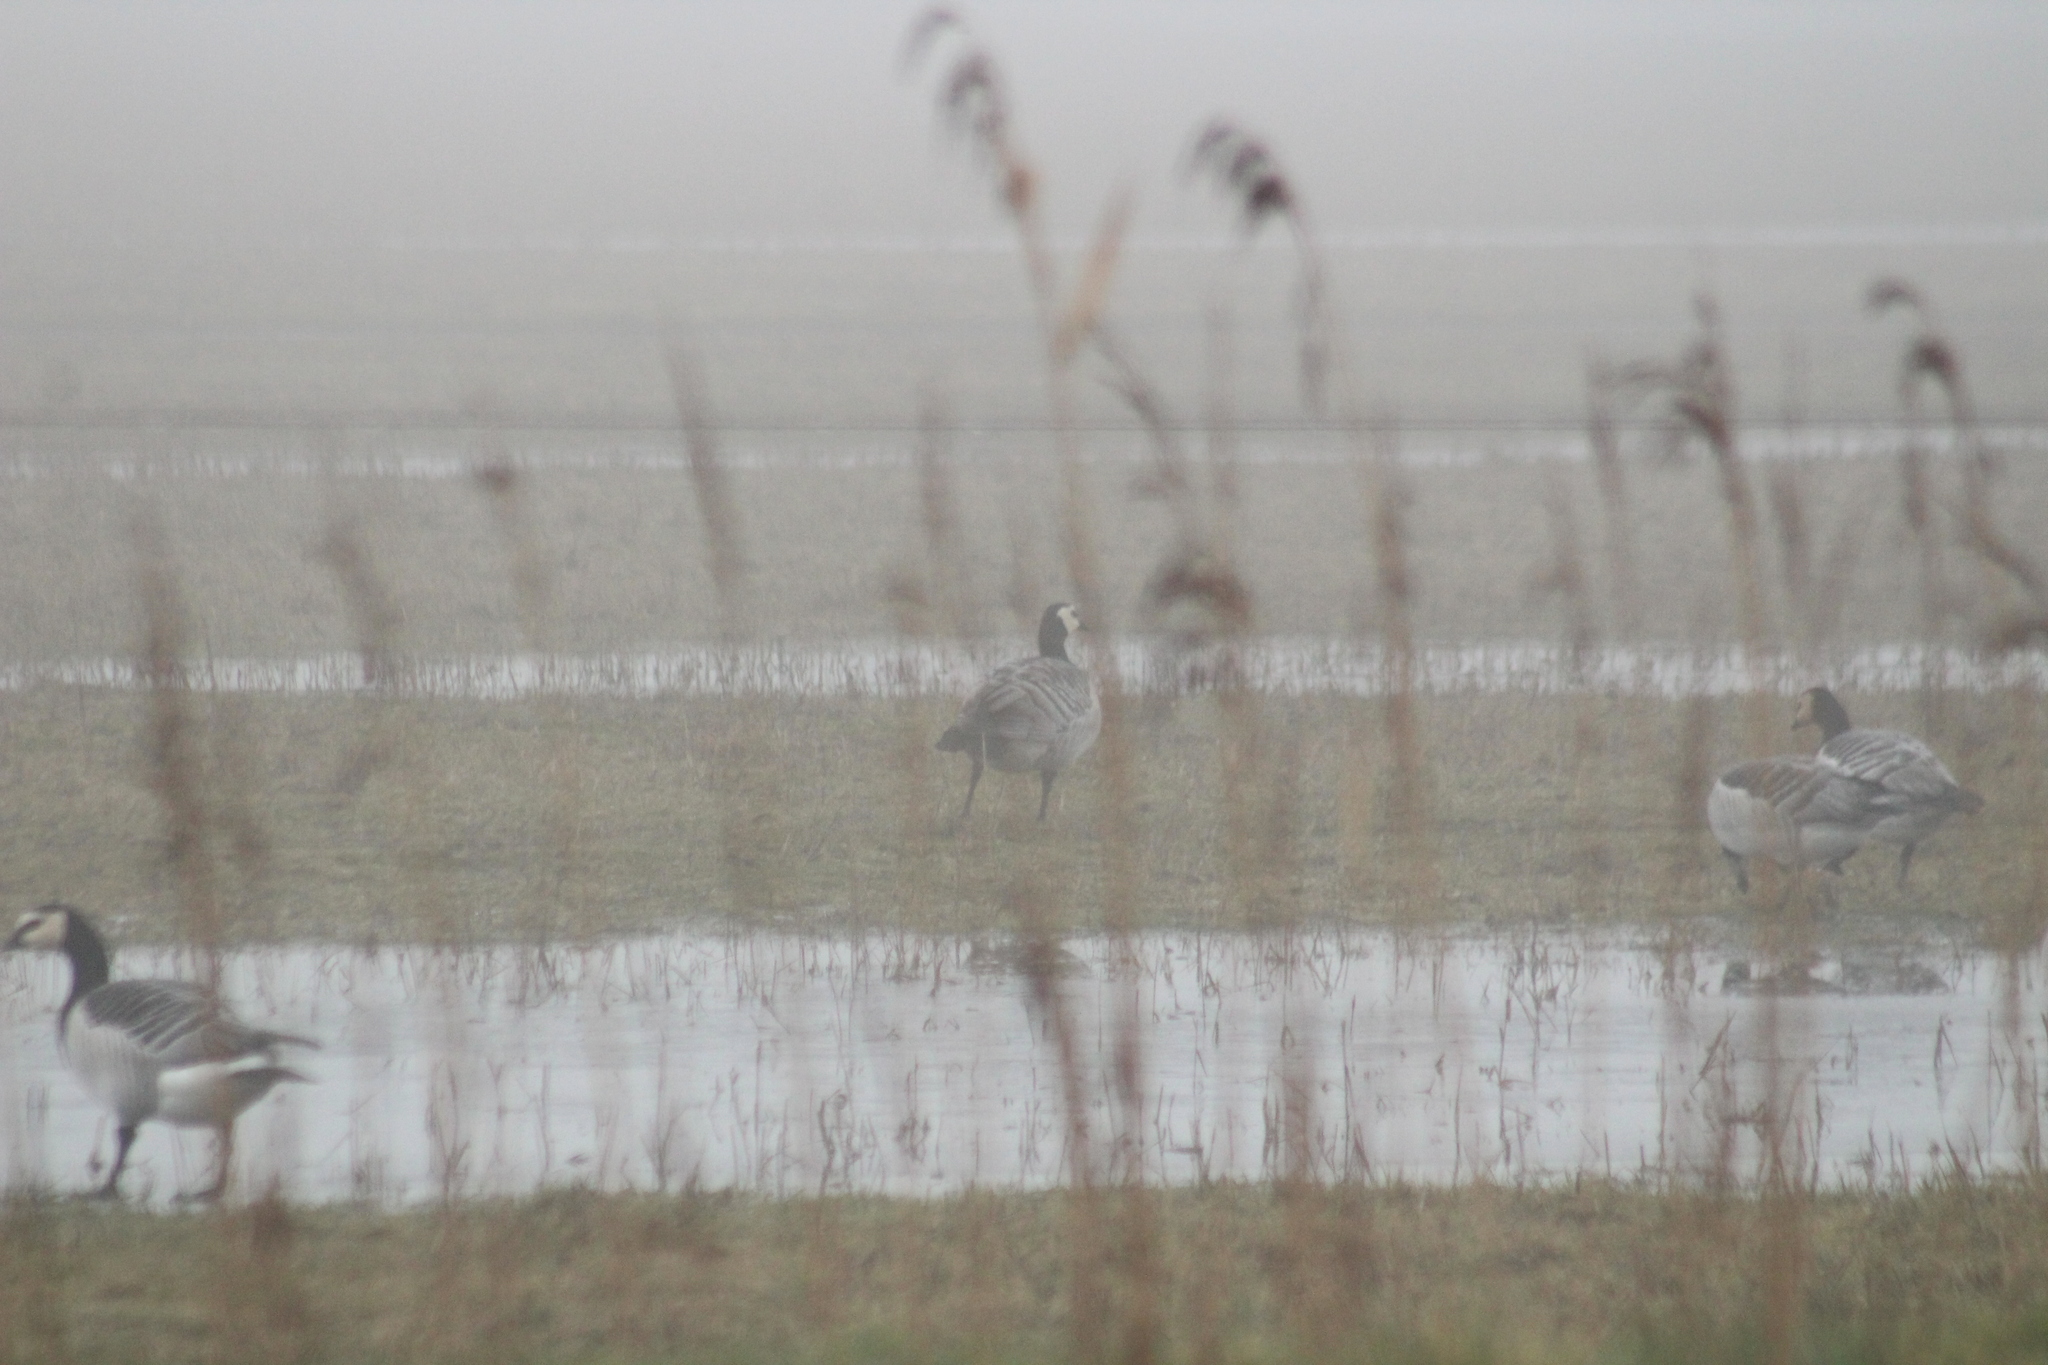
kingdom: Animalia
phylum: Chordata
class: Aves
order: Anseriformes
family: Anatidae
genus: Branta
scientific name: Branta leucopsis
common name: Barnacle goose
